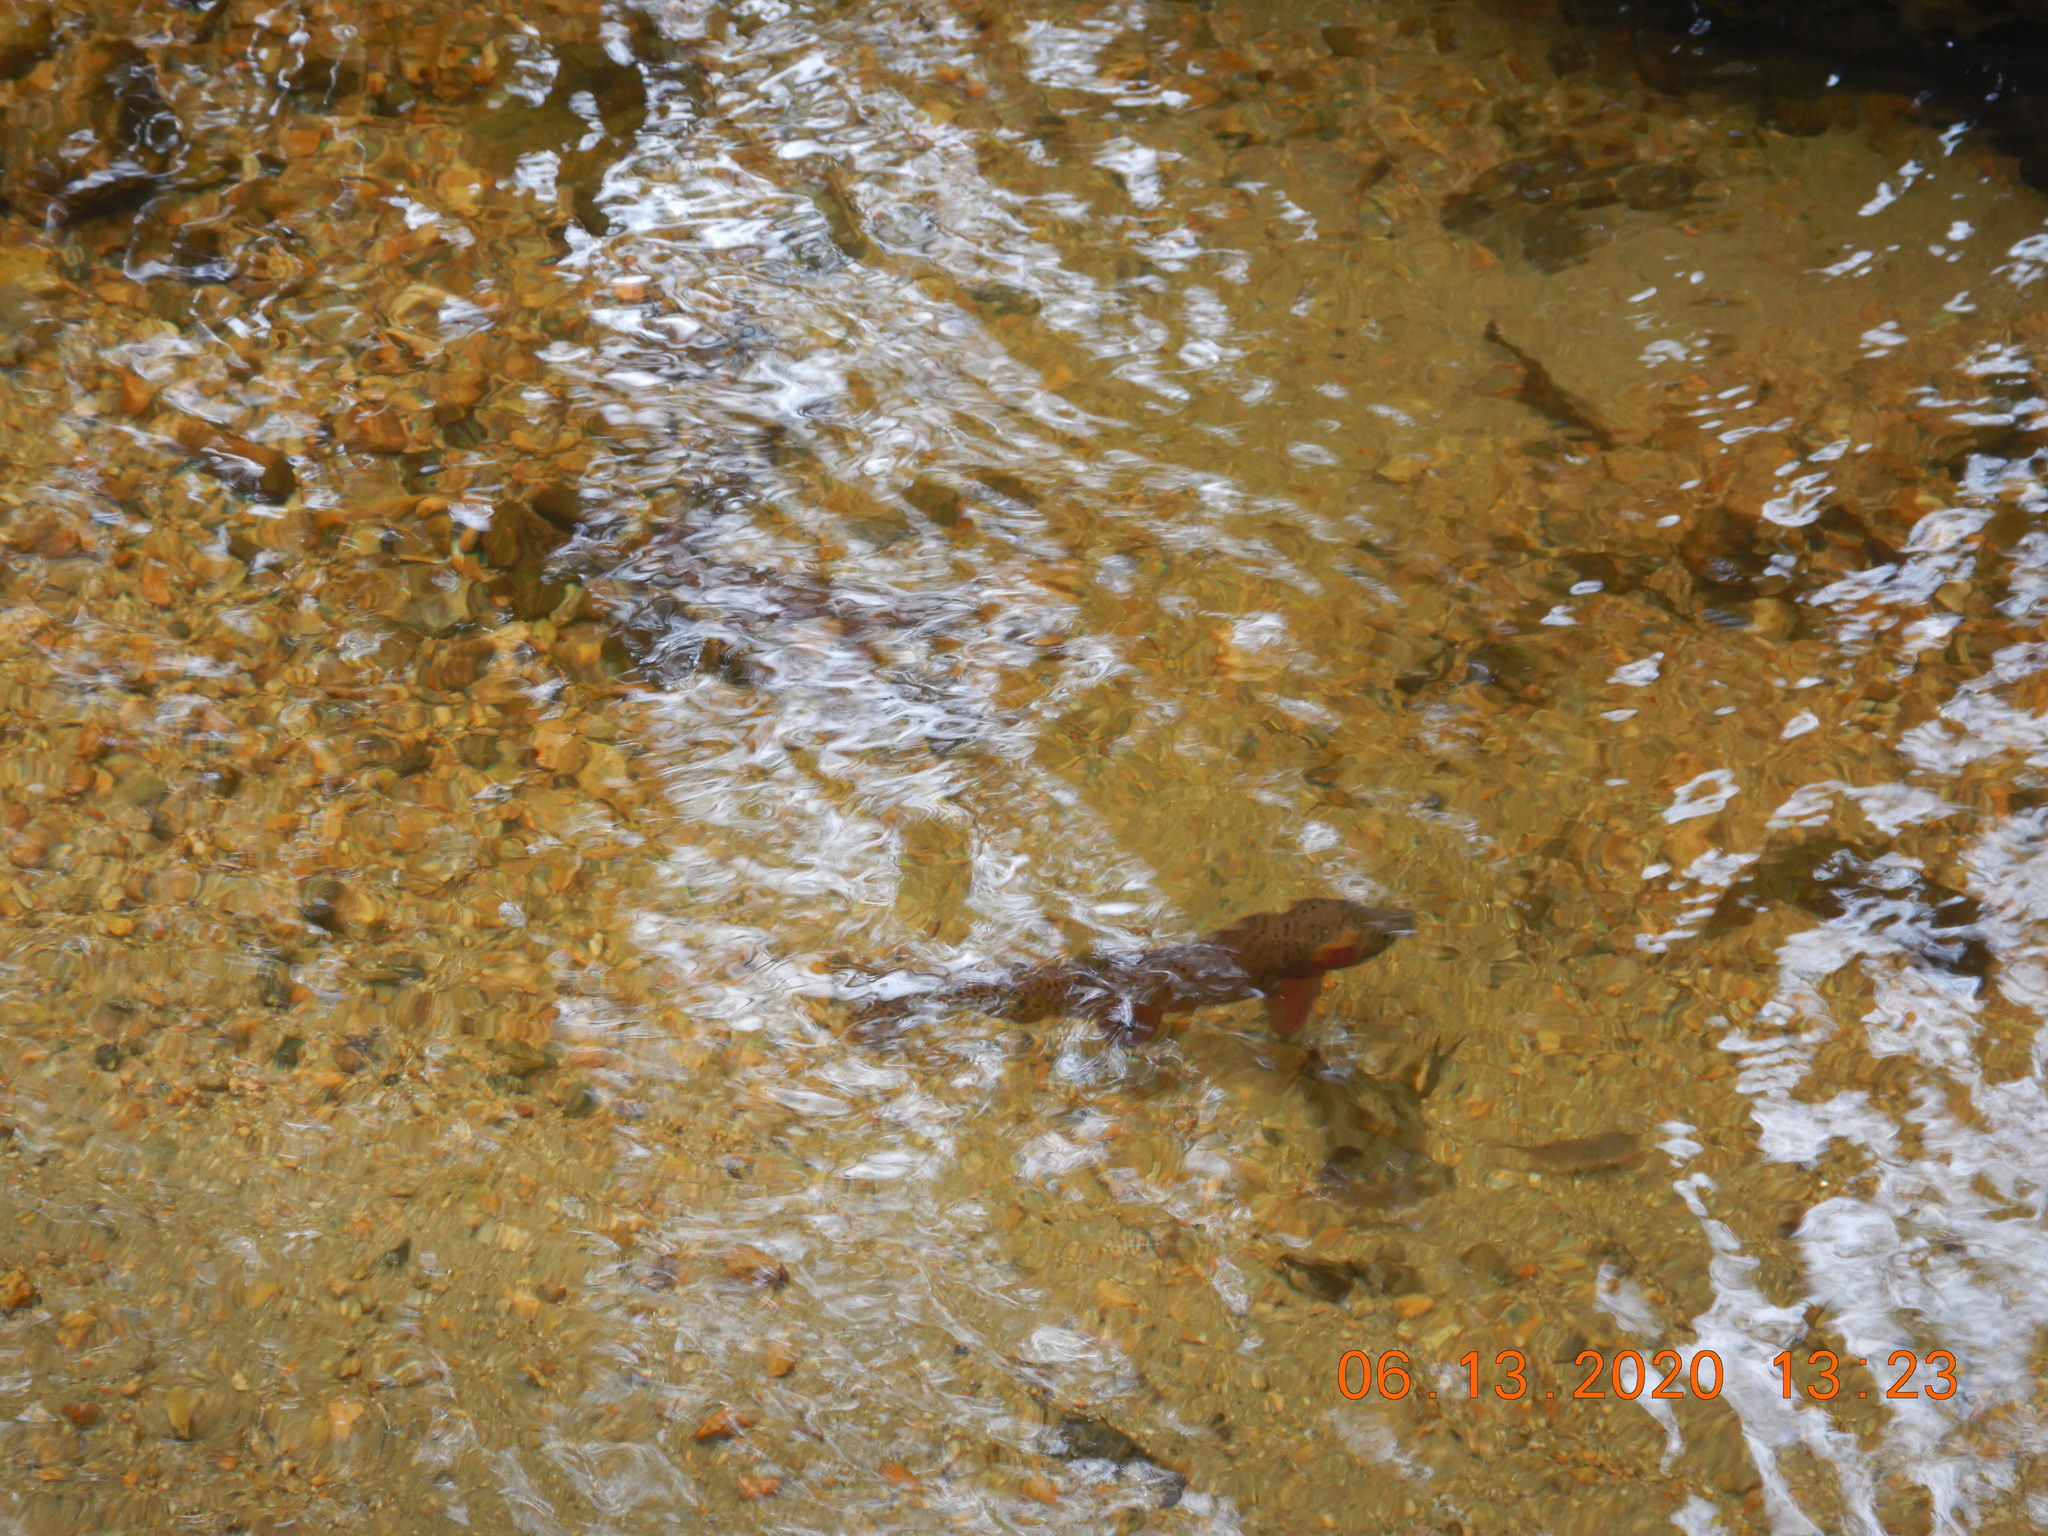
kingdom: Animalia
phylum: Chordata
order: Salmoniformes
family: Salmonidae
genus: Oncorhynchus
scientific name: Oncorhynchus virginalis
